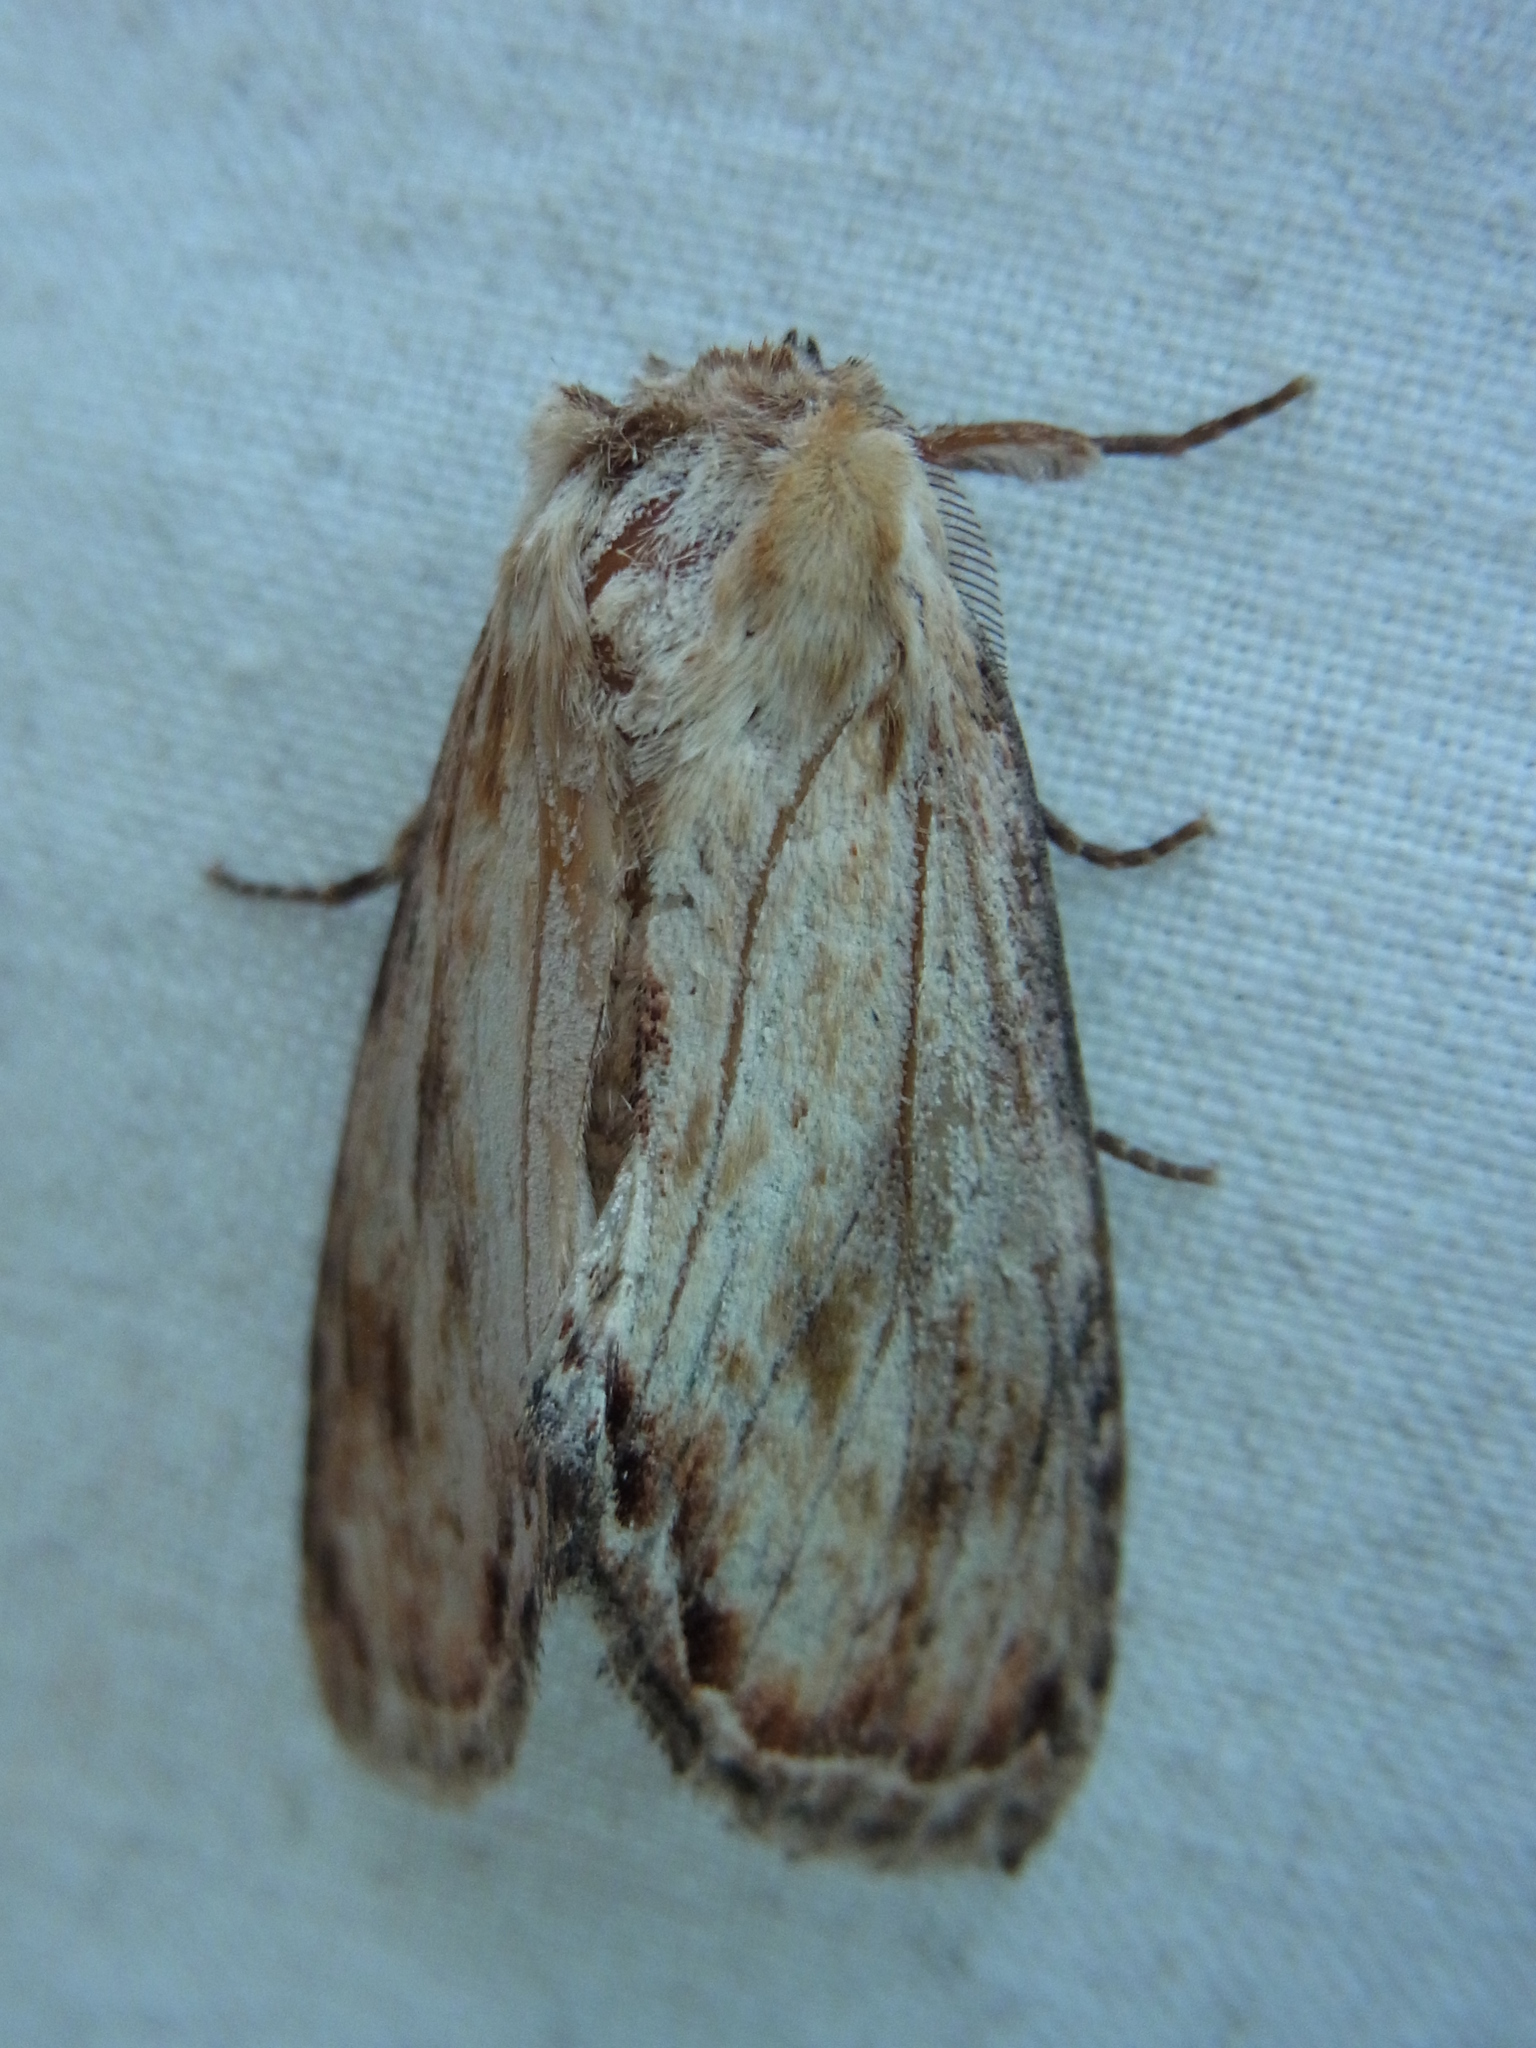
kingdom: Animalia
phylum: Arthropoda
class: Insecta
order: Lepidoptera
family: Notodontidae
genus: Hupodonta
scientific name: Hupodonta corticalis
